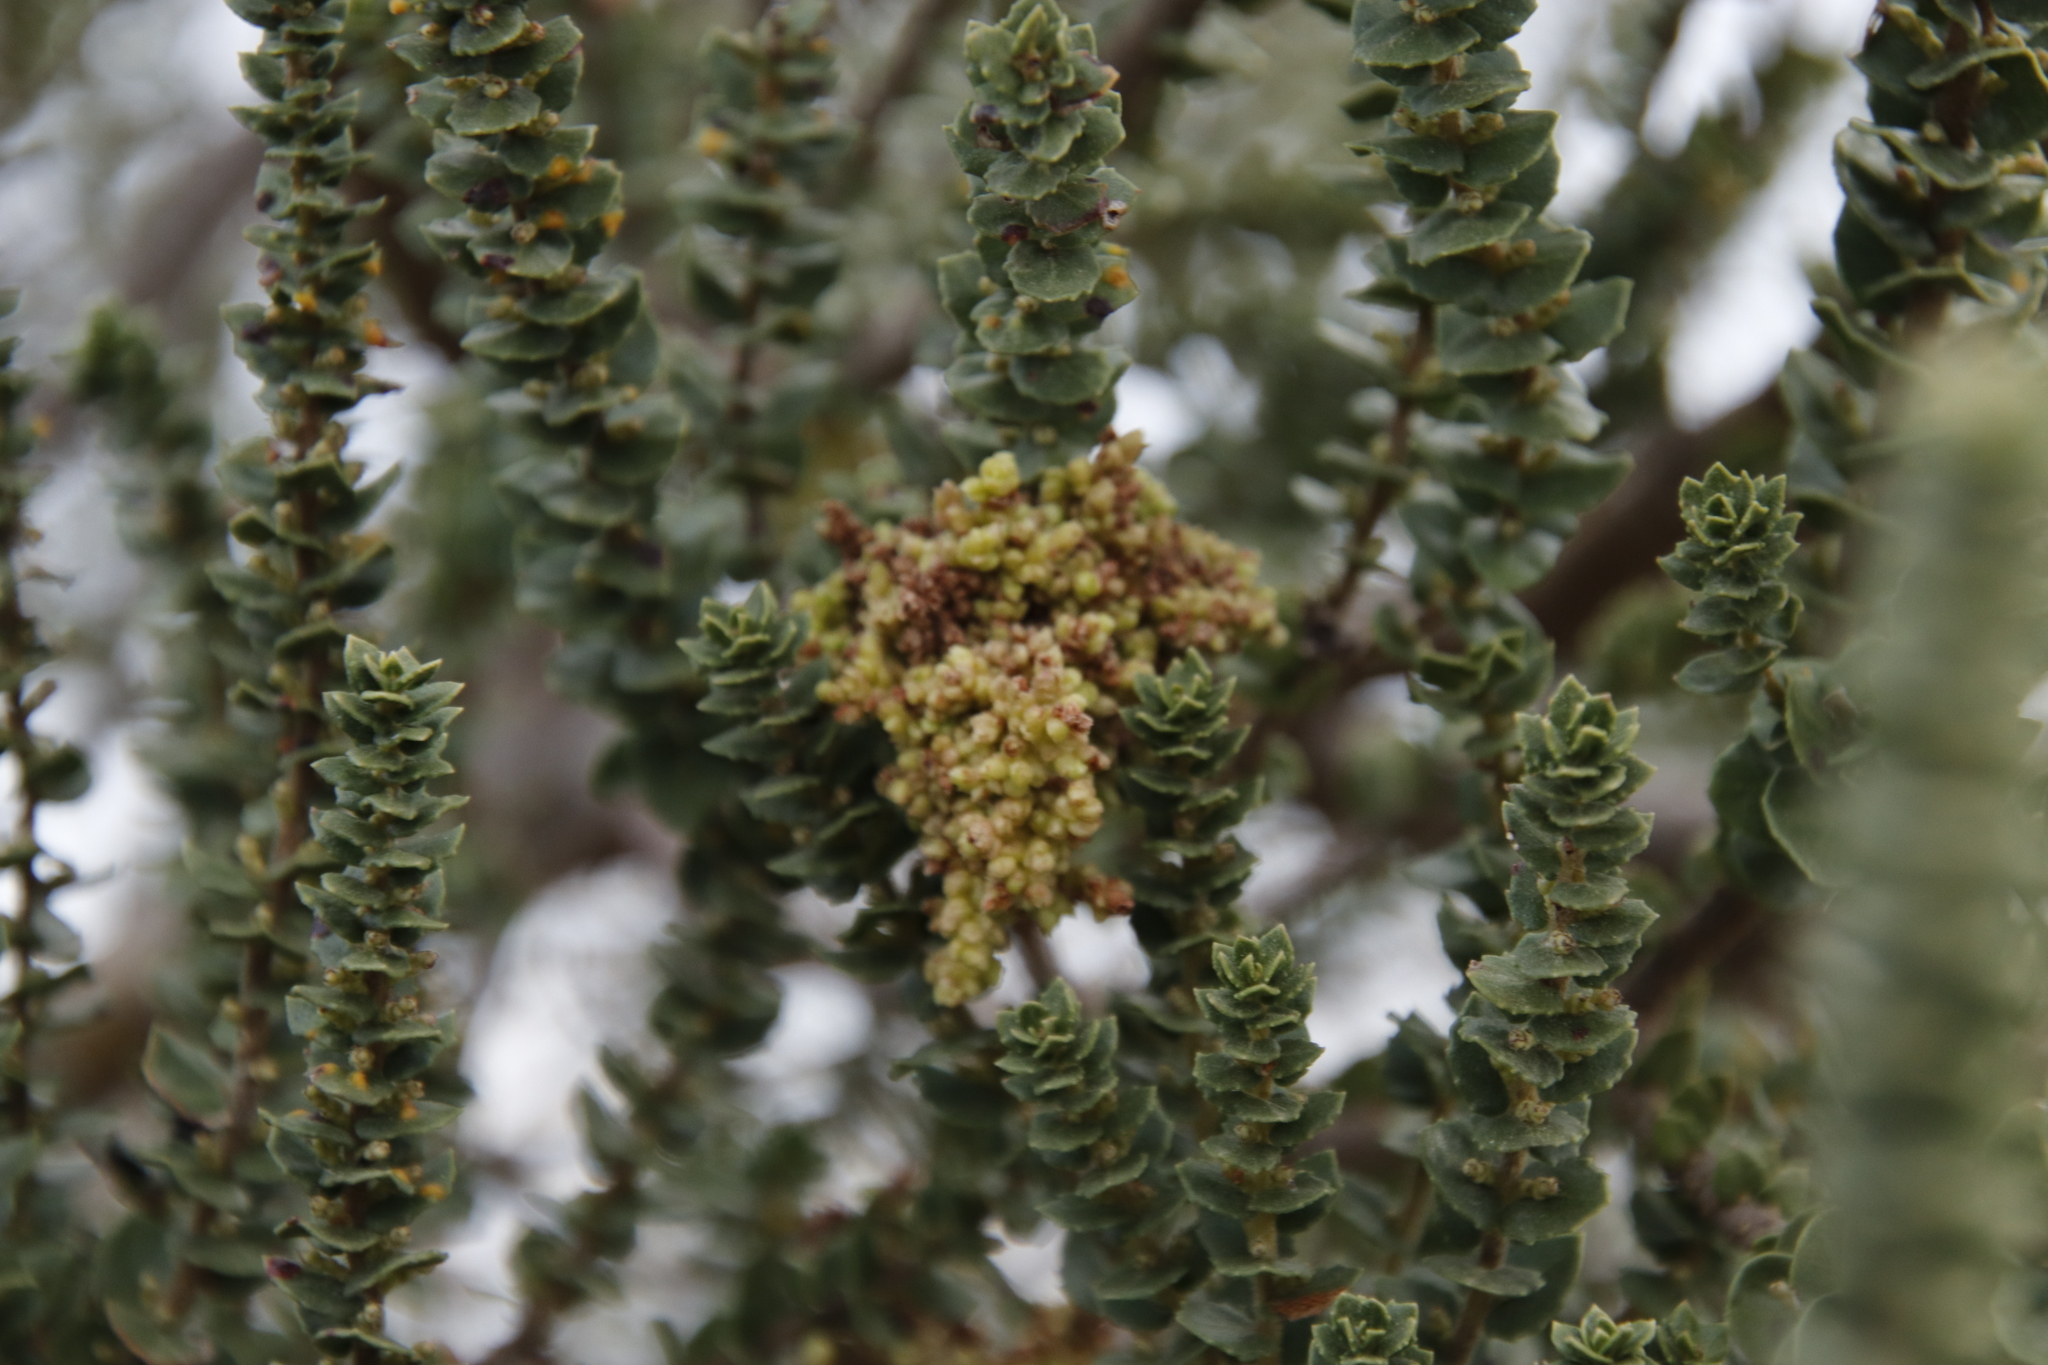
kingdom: Plantae
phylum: Tracheophyta
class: Magnoliopsida
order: Fagales
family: Myricaceae
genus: Morella
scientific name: Morella cordifolia
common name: Waxberry
